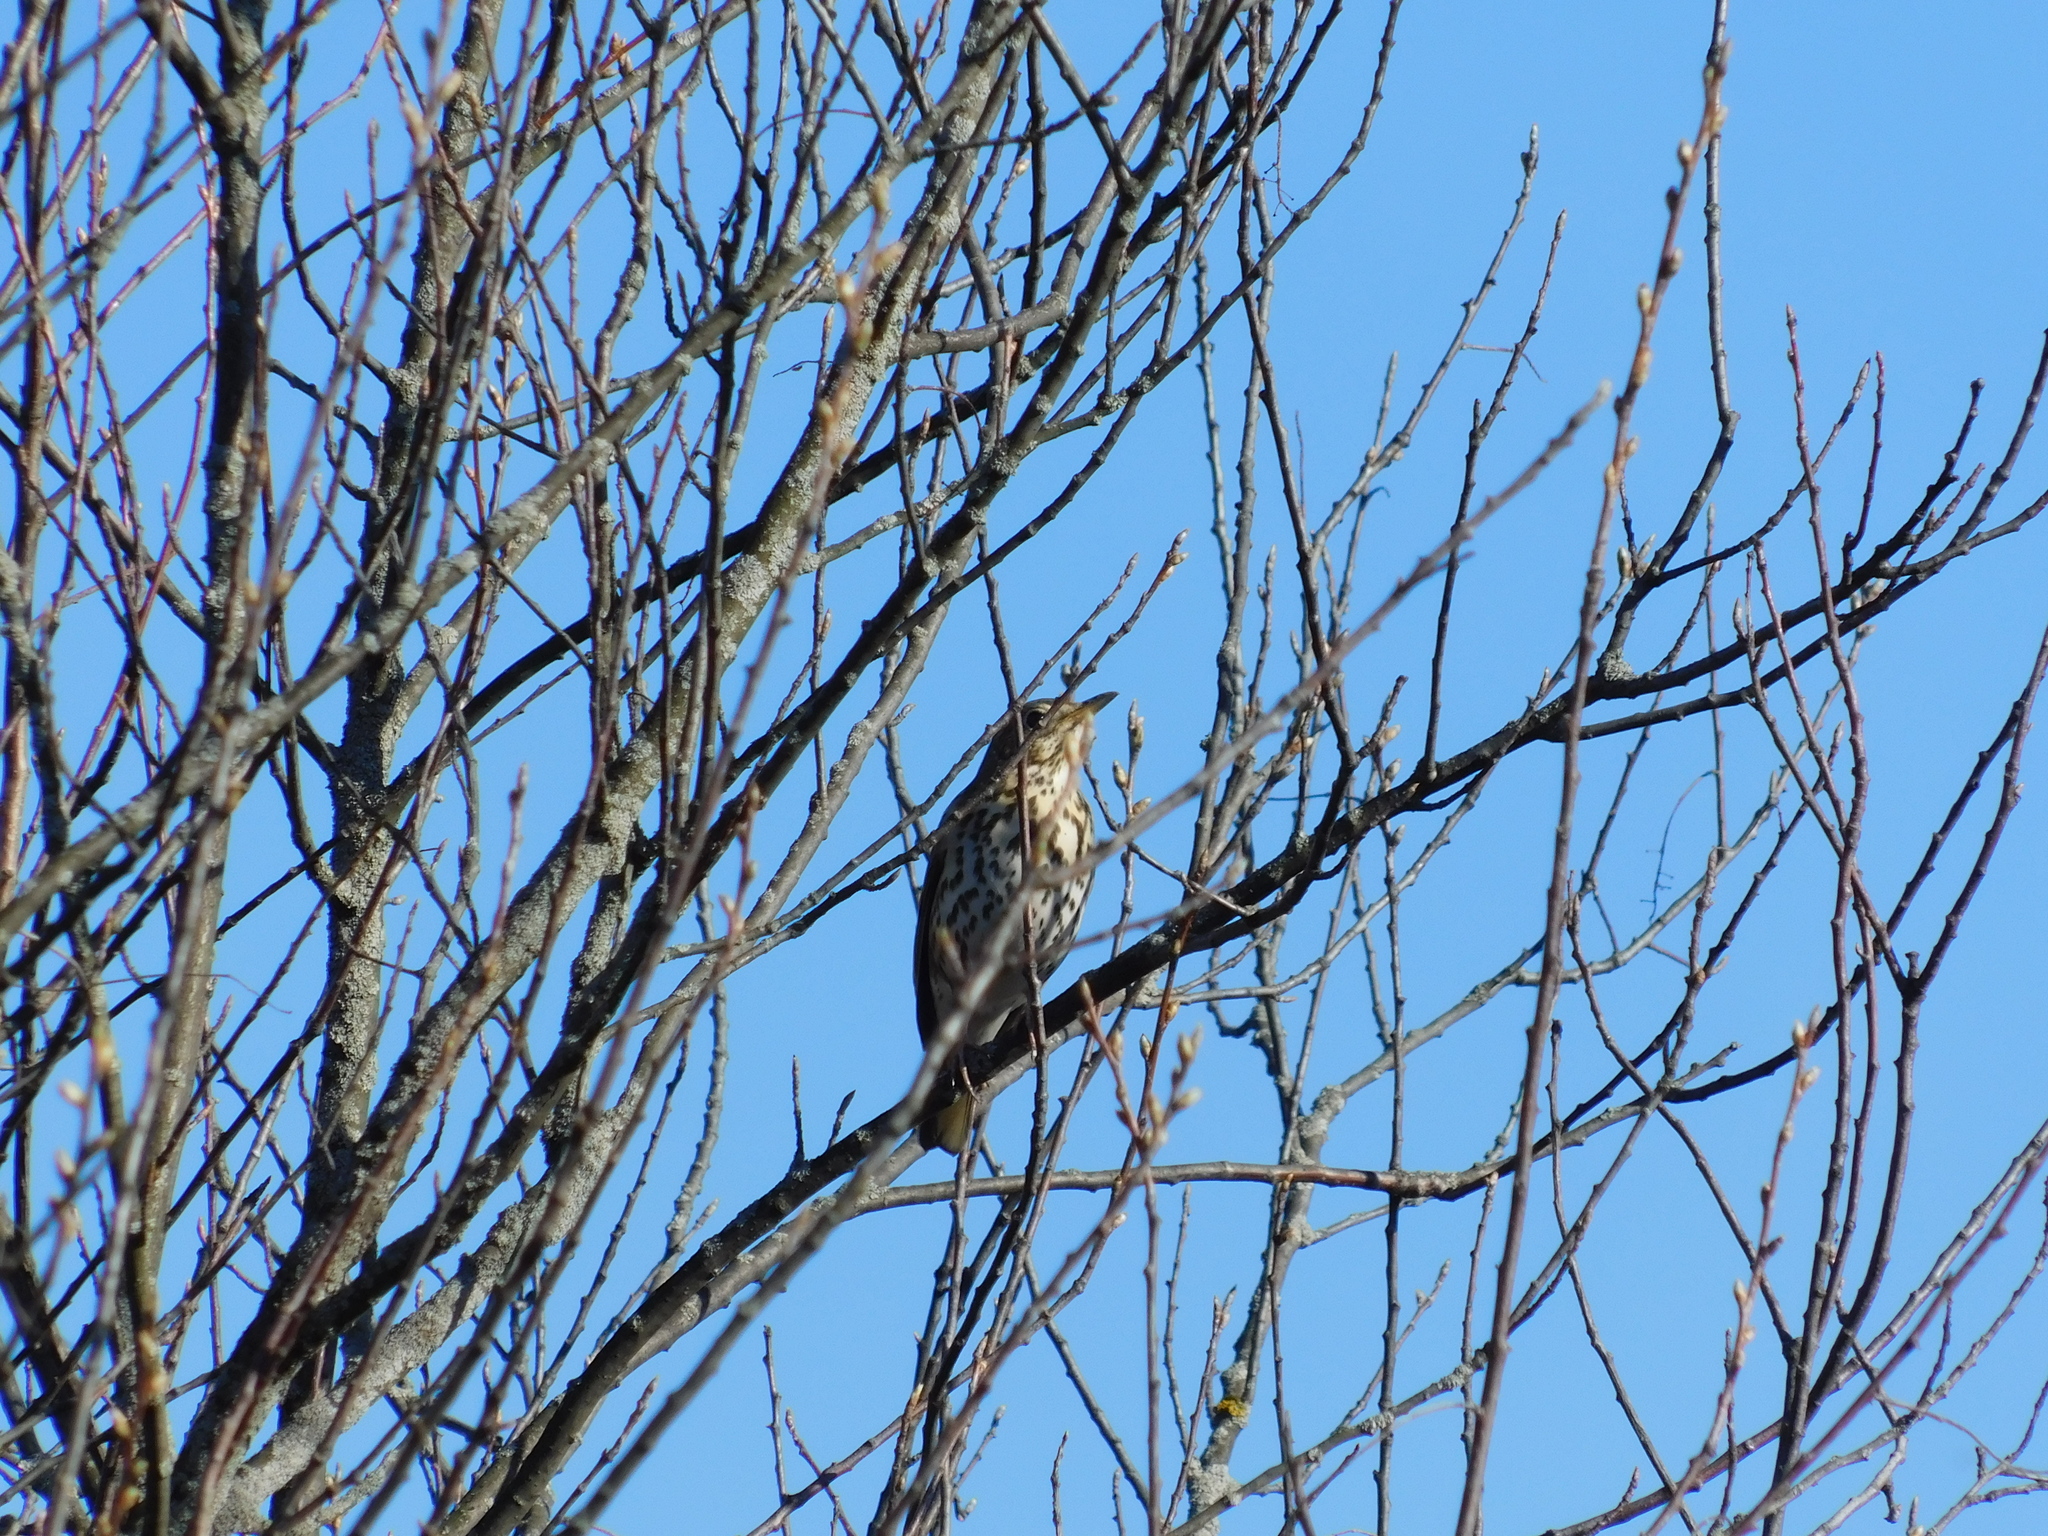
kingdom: Animalia
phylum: Chordata
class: Aves
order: Passeriformes
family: Turdidae
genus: Turdus
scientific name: Turdus philomelos
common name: Song thrush
